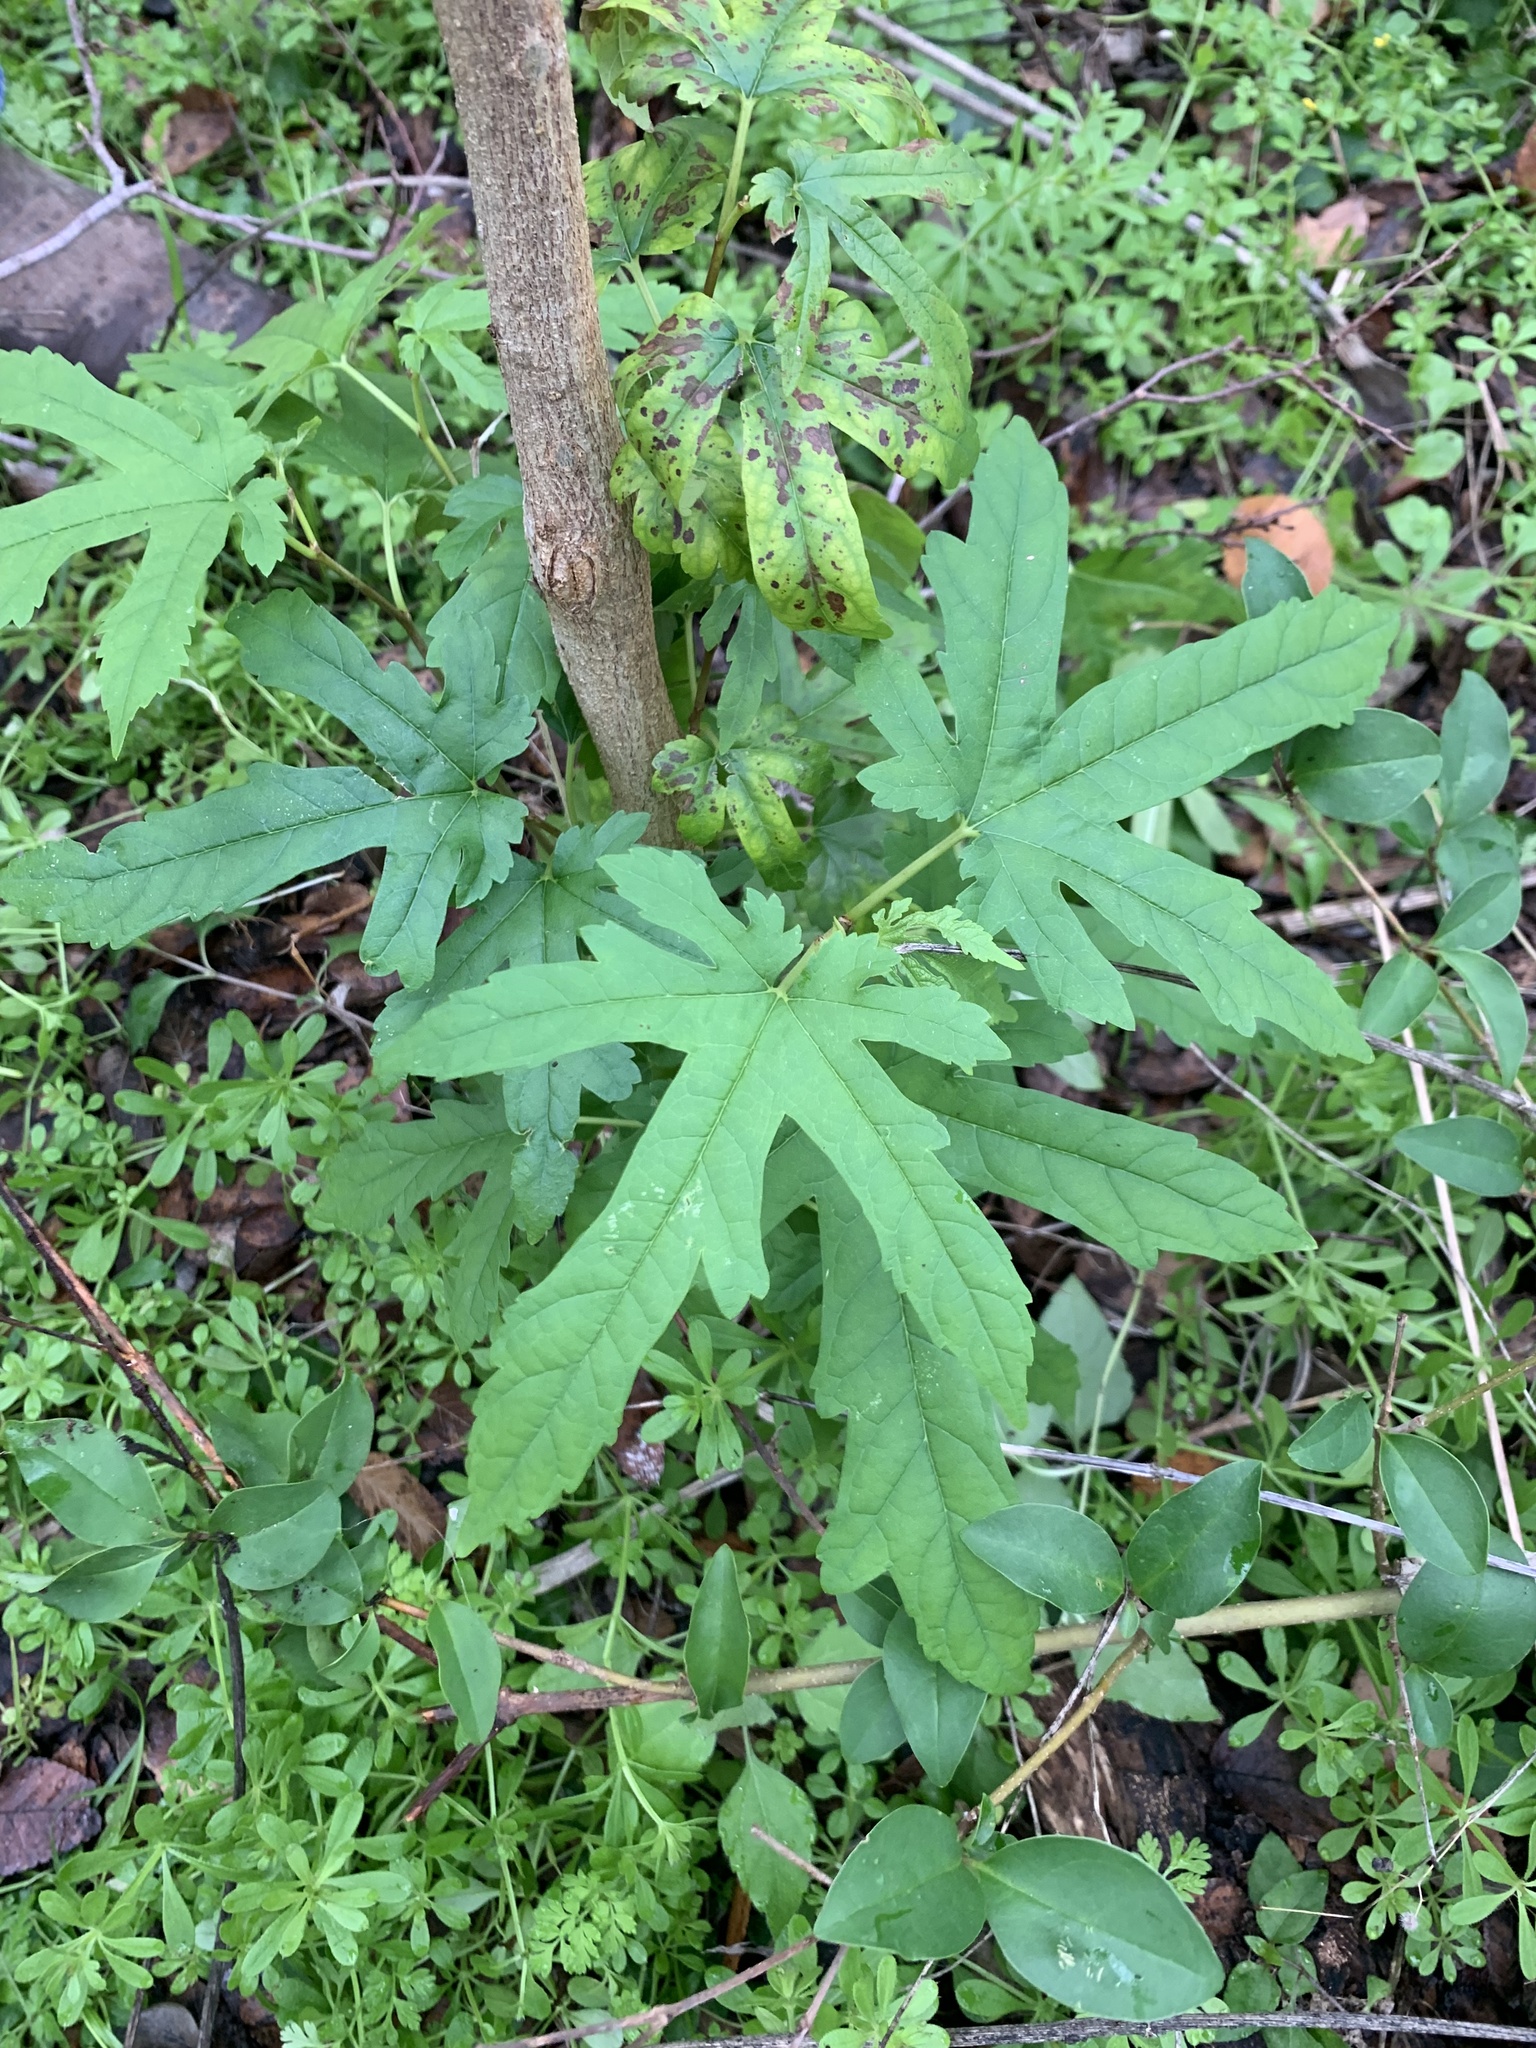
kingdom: Plantae
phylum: Tracheophyta
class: Magnoliopsida
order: Rosales
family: Moraceae
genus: Morus
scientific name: Morus indica
